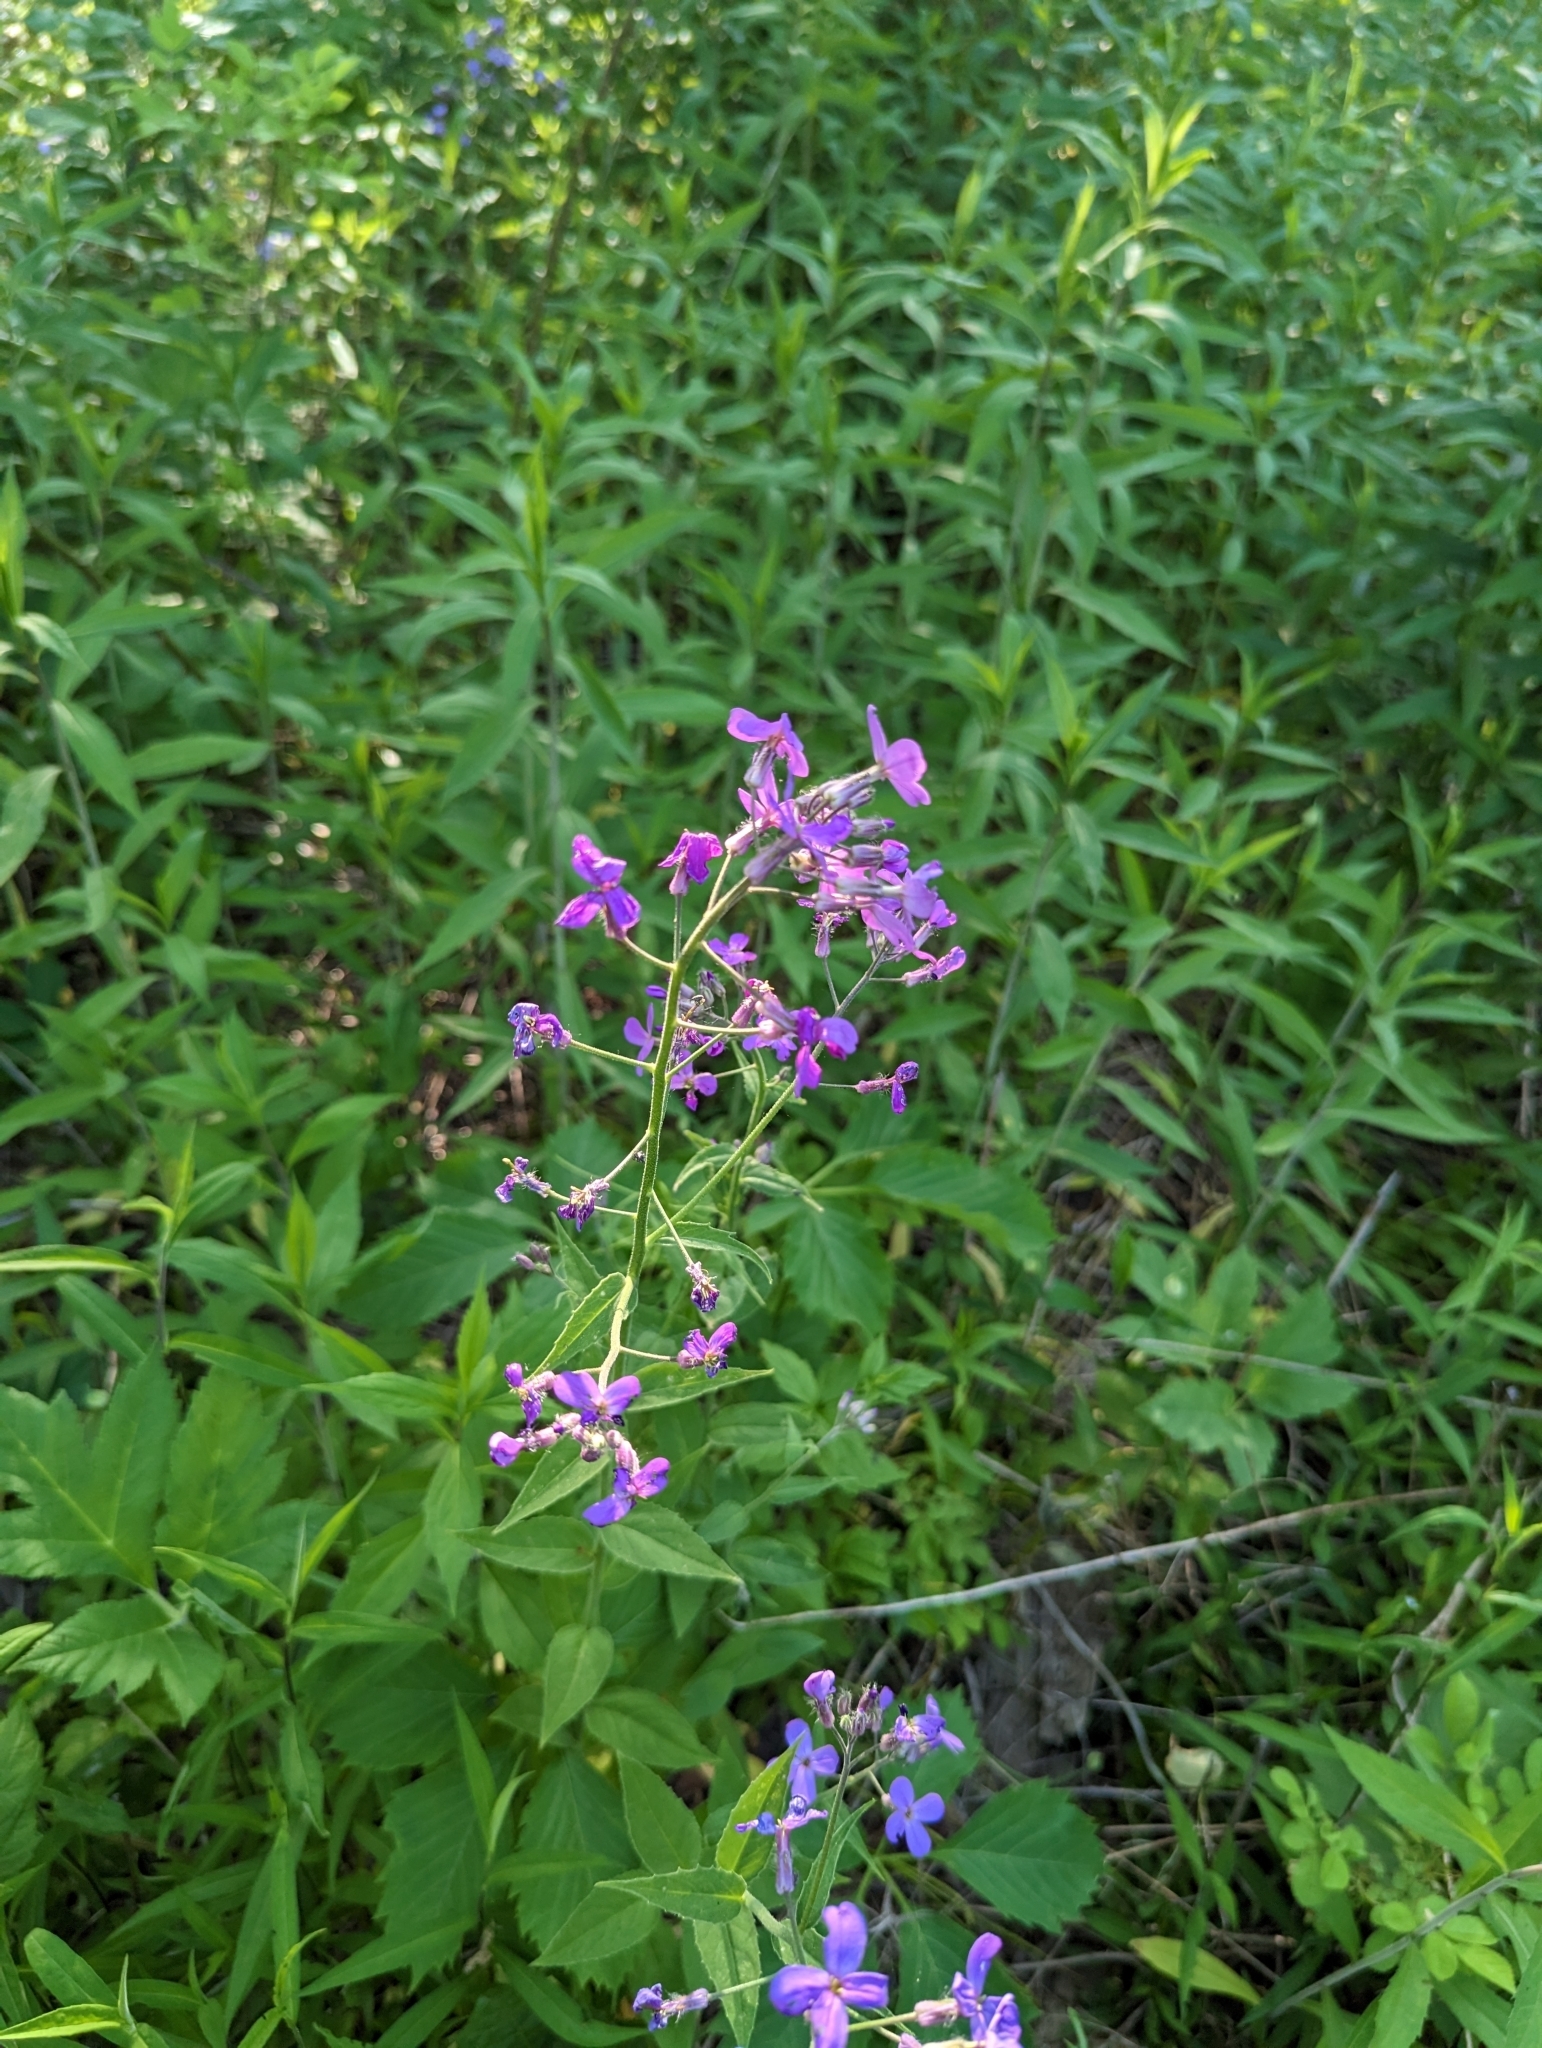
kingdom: Plantae
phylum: Tracheophyta
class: Magnoliopsida
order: Brassicales
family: Brassicaceae
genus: Hesperis
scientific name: Hesperis matronalis
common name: Dame's-violet
